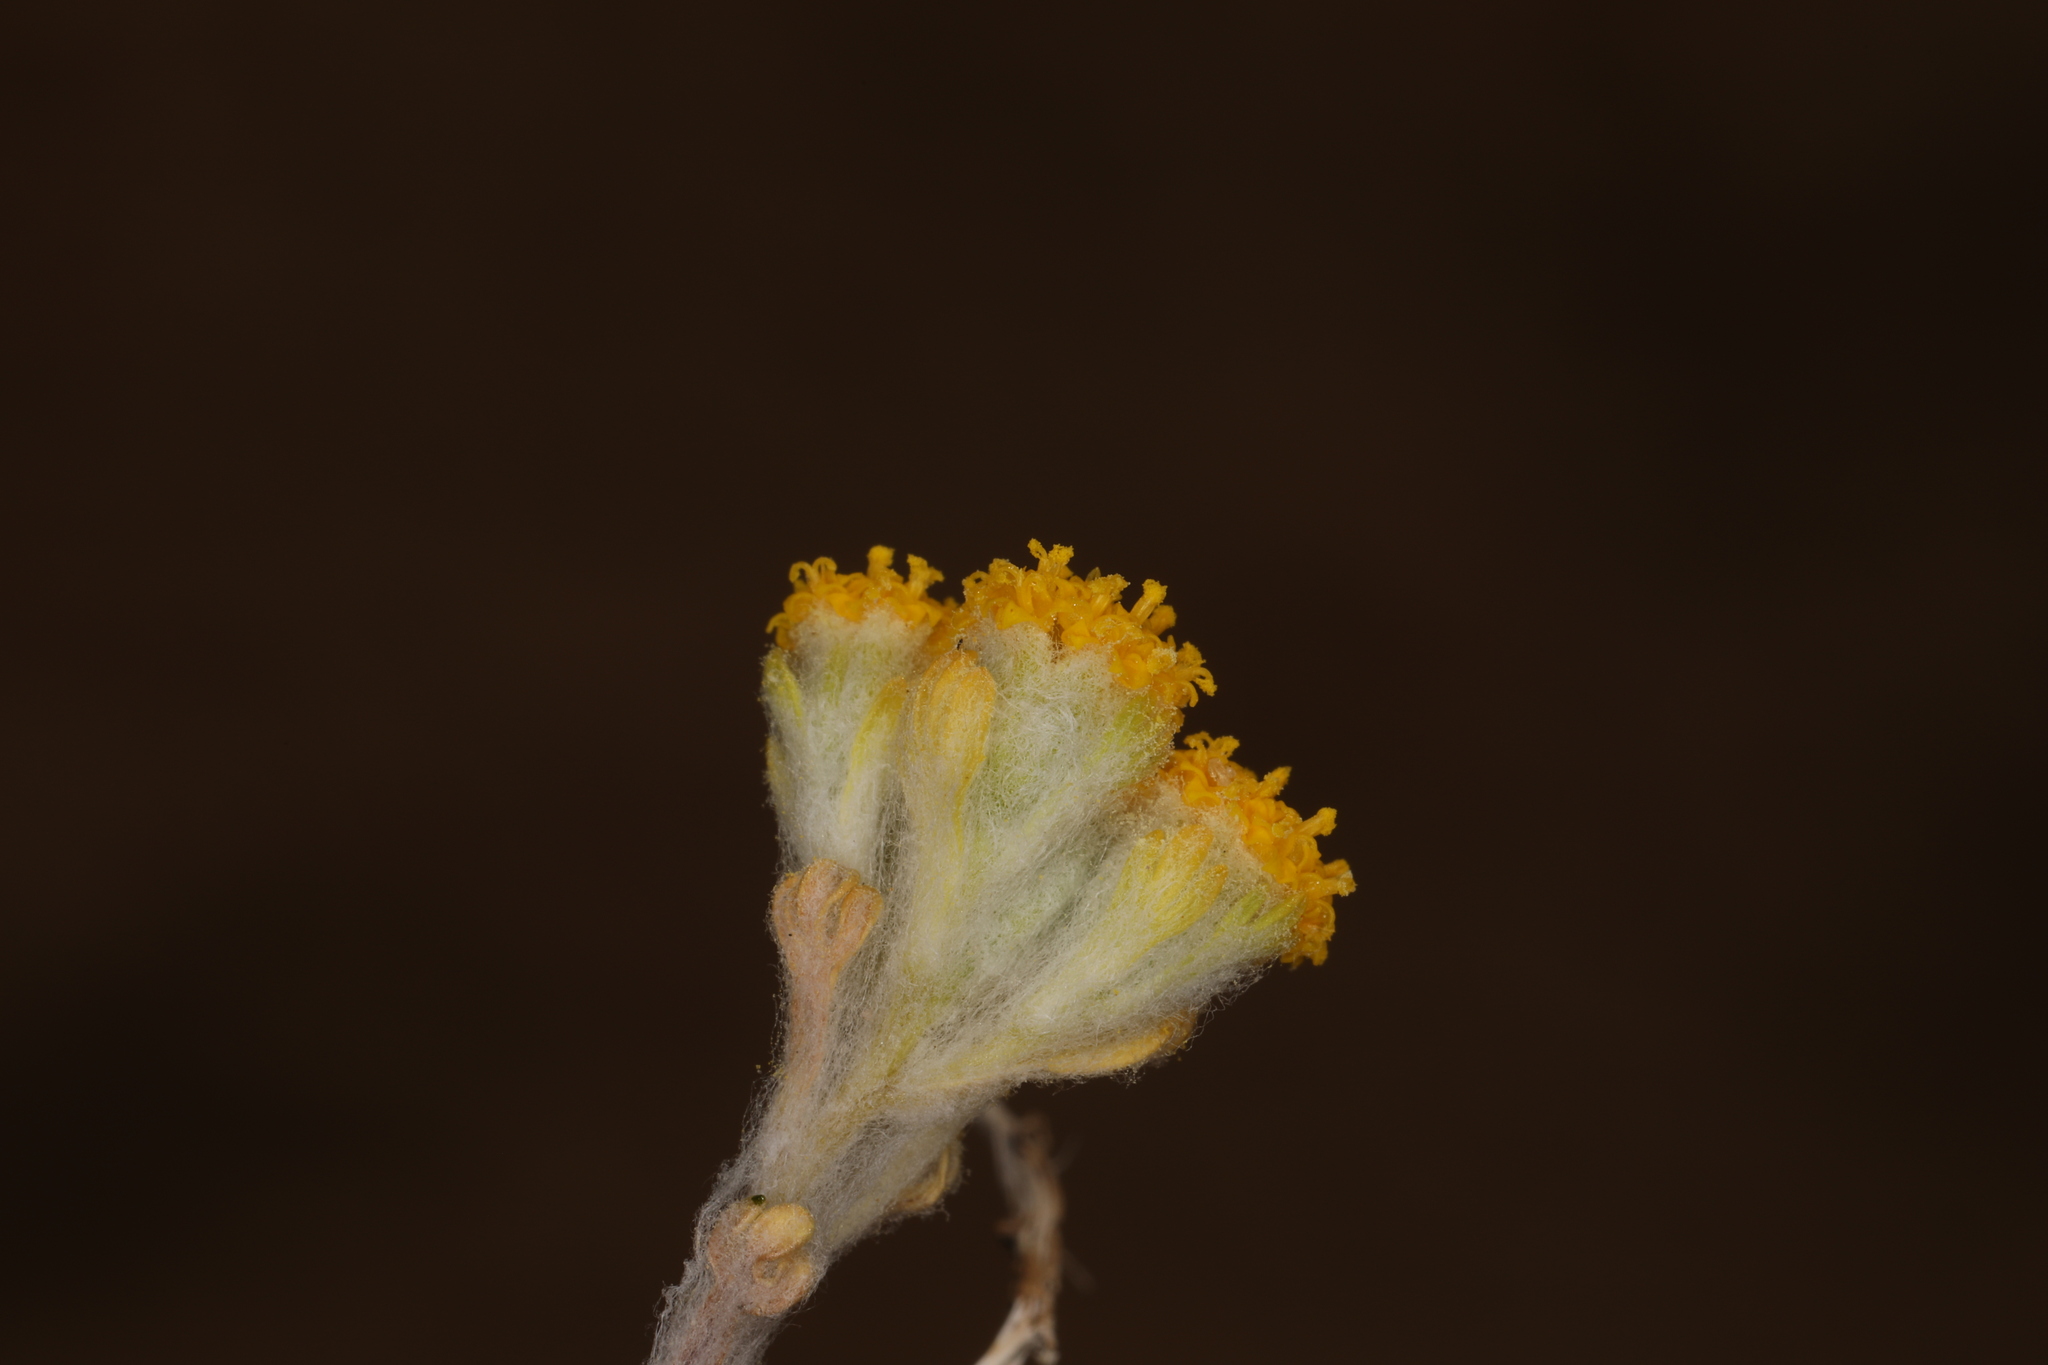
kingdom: Plantae
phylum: Tracheophyta
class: Magnoliopsida
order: Asterales
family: Asteraceae
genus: Eriophyllum
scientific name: Eriophyllum pringlei
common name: Pringle's woolly-sunflower
